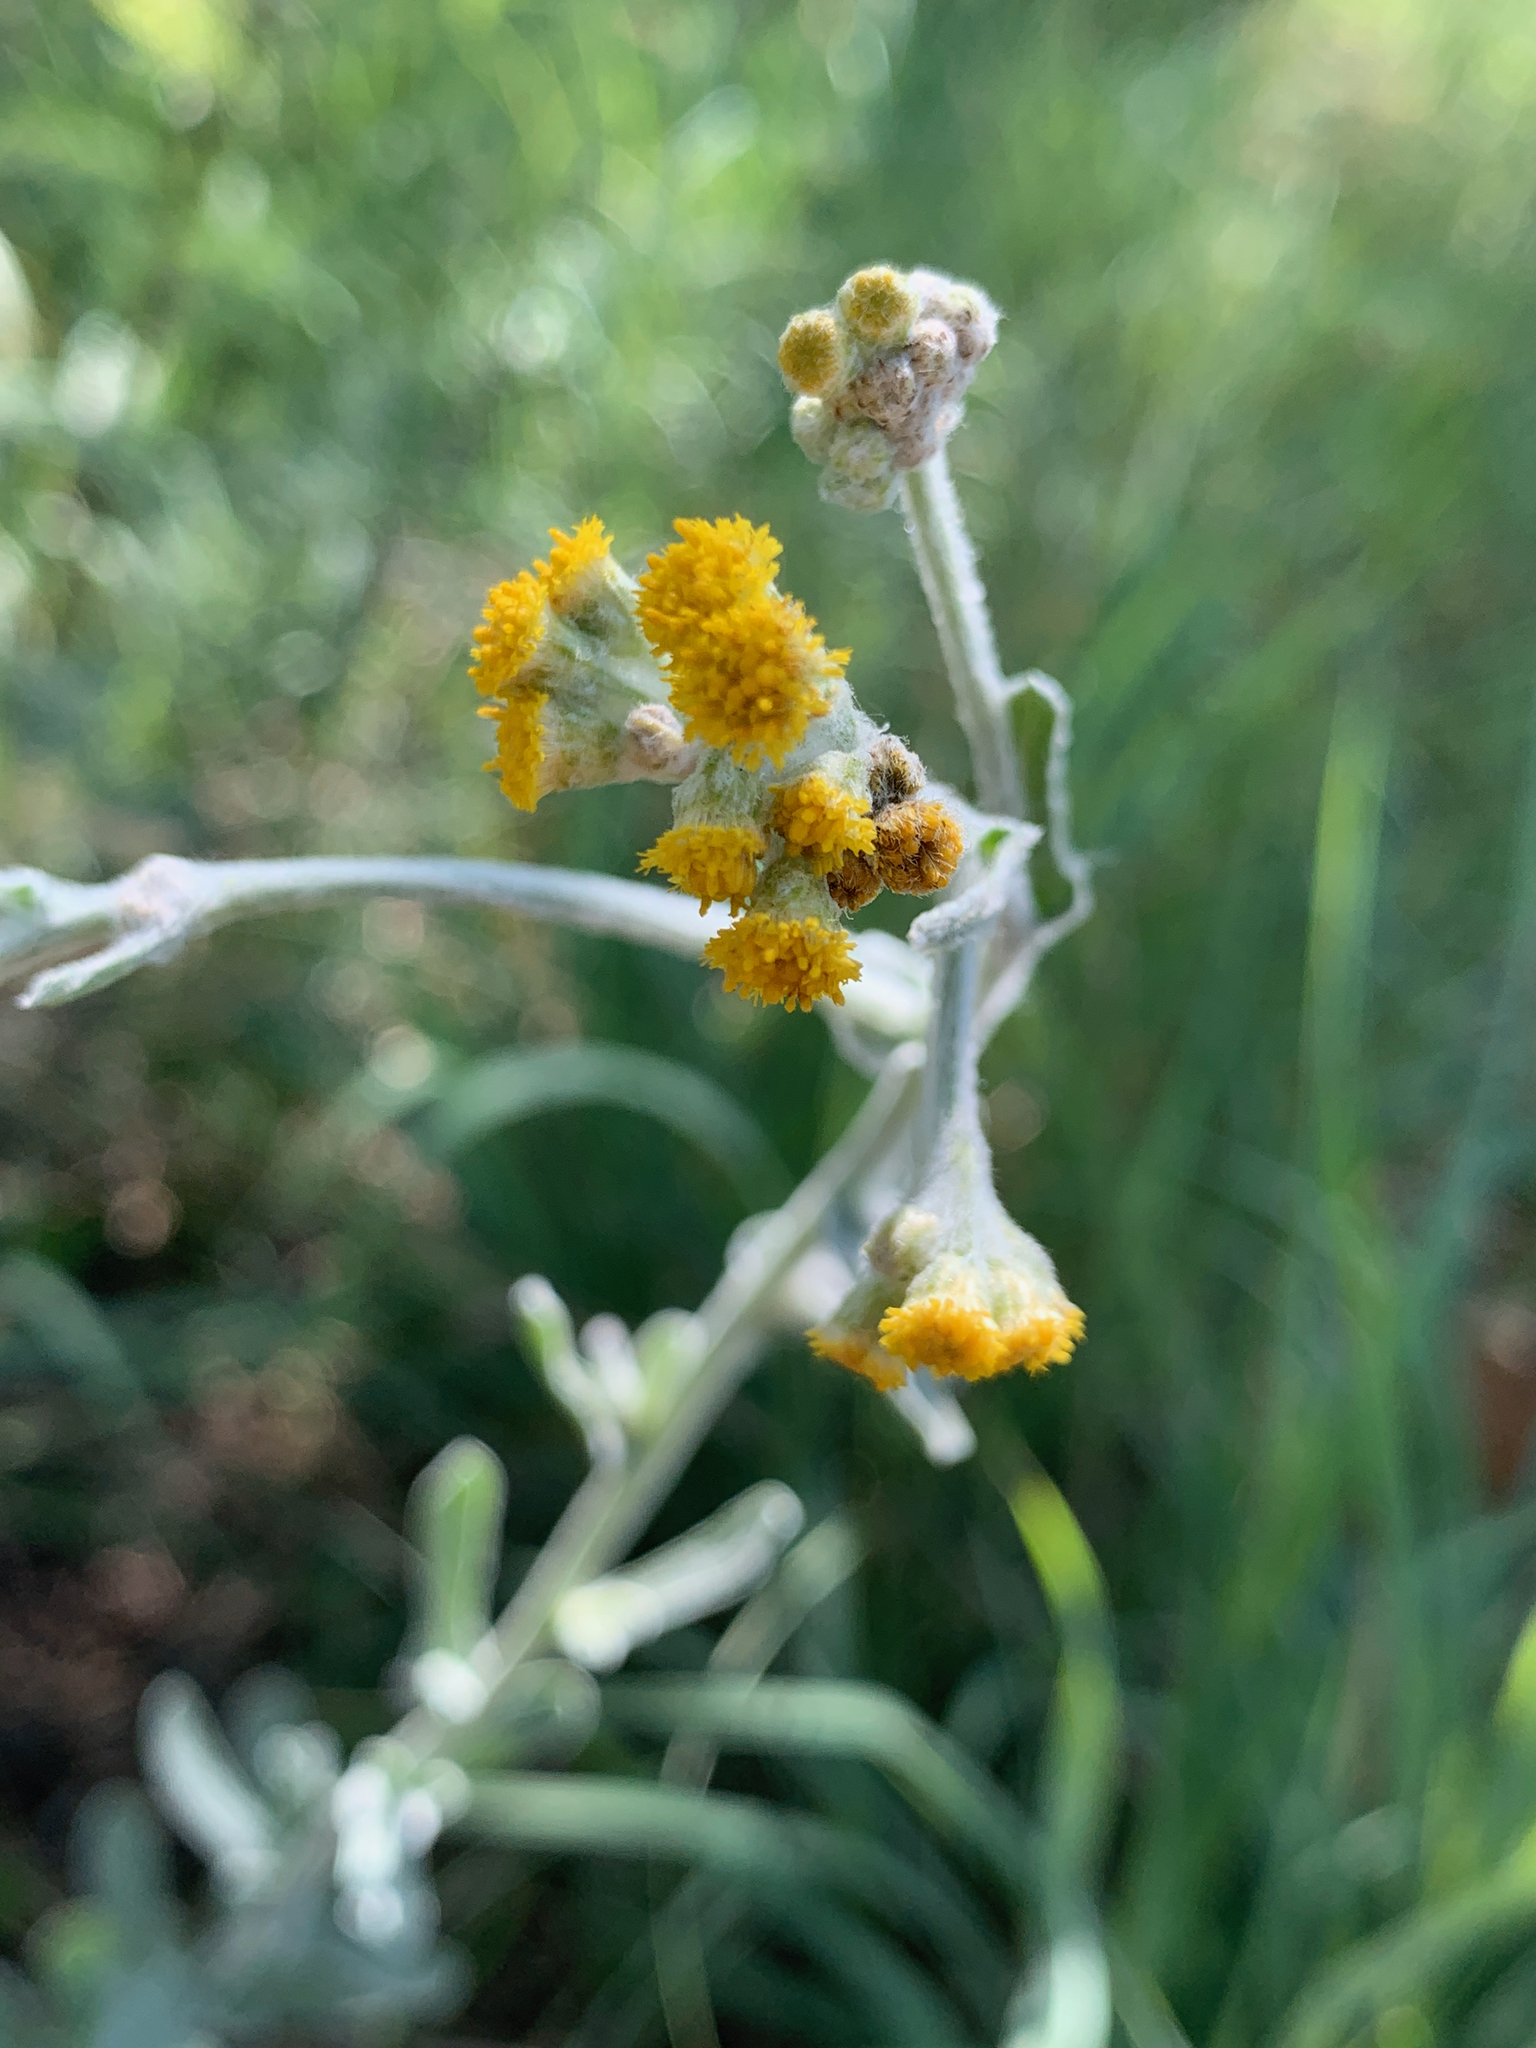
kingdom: Plantae
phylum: Tracheophyta
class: Magnoliopsida
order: Asterales
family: Asteraceae
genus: Nidorella
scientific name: Nidorella hottentotica
